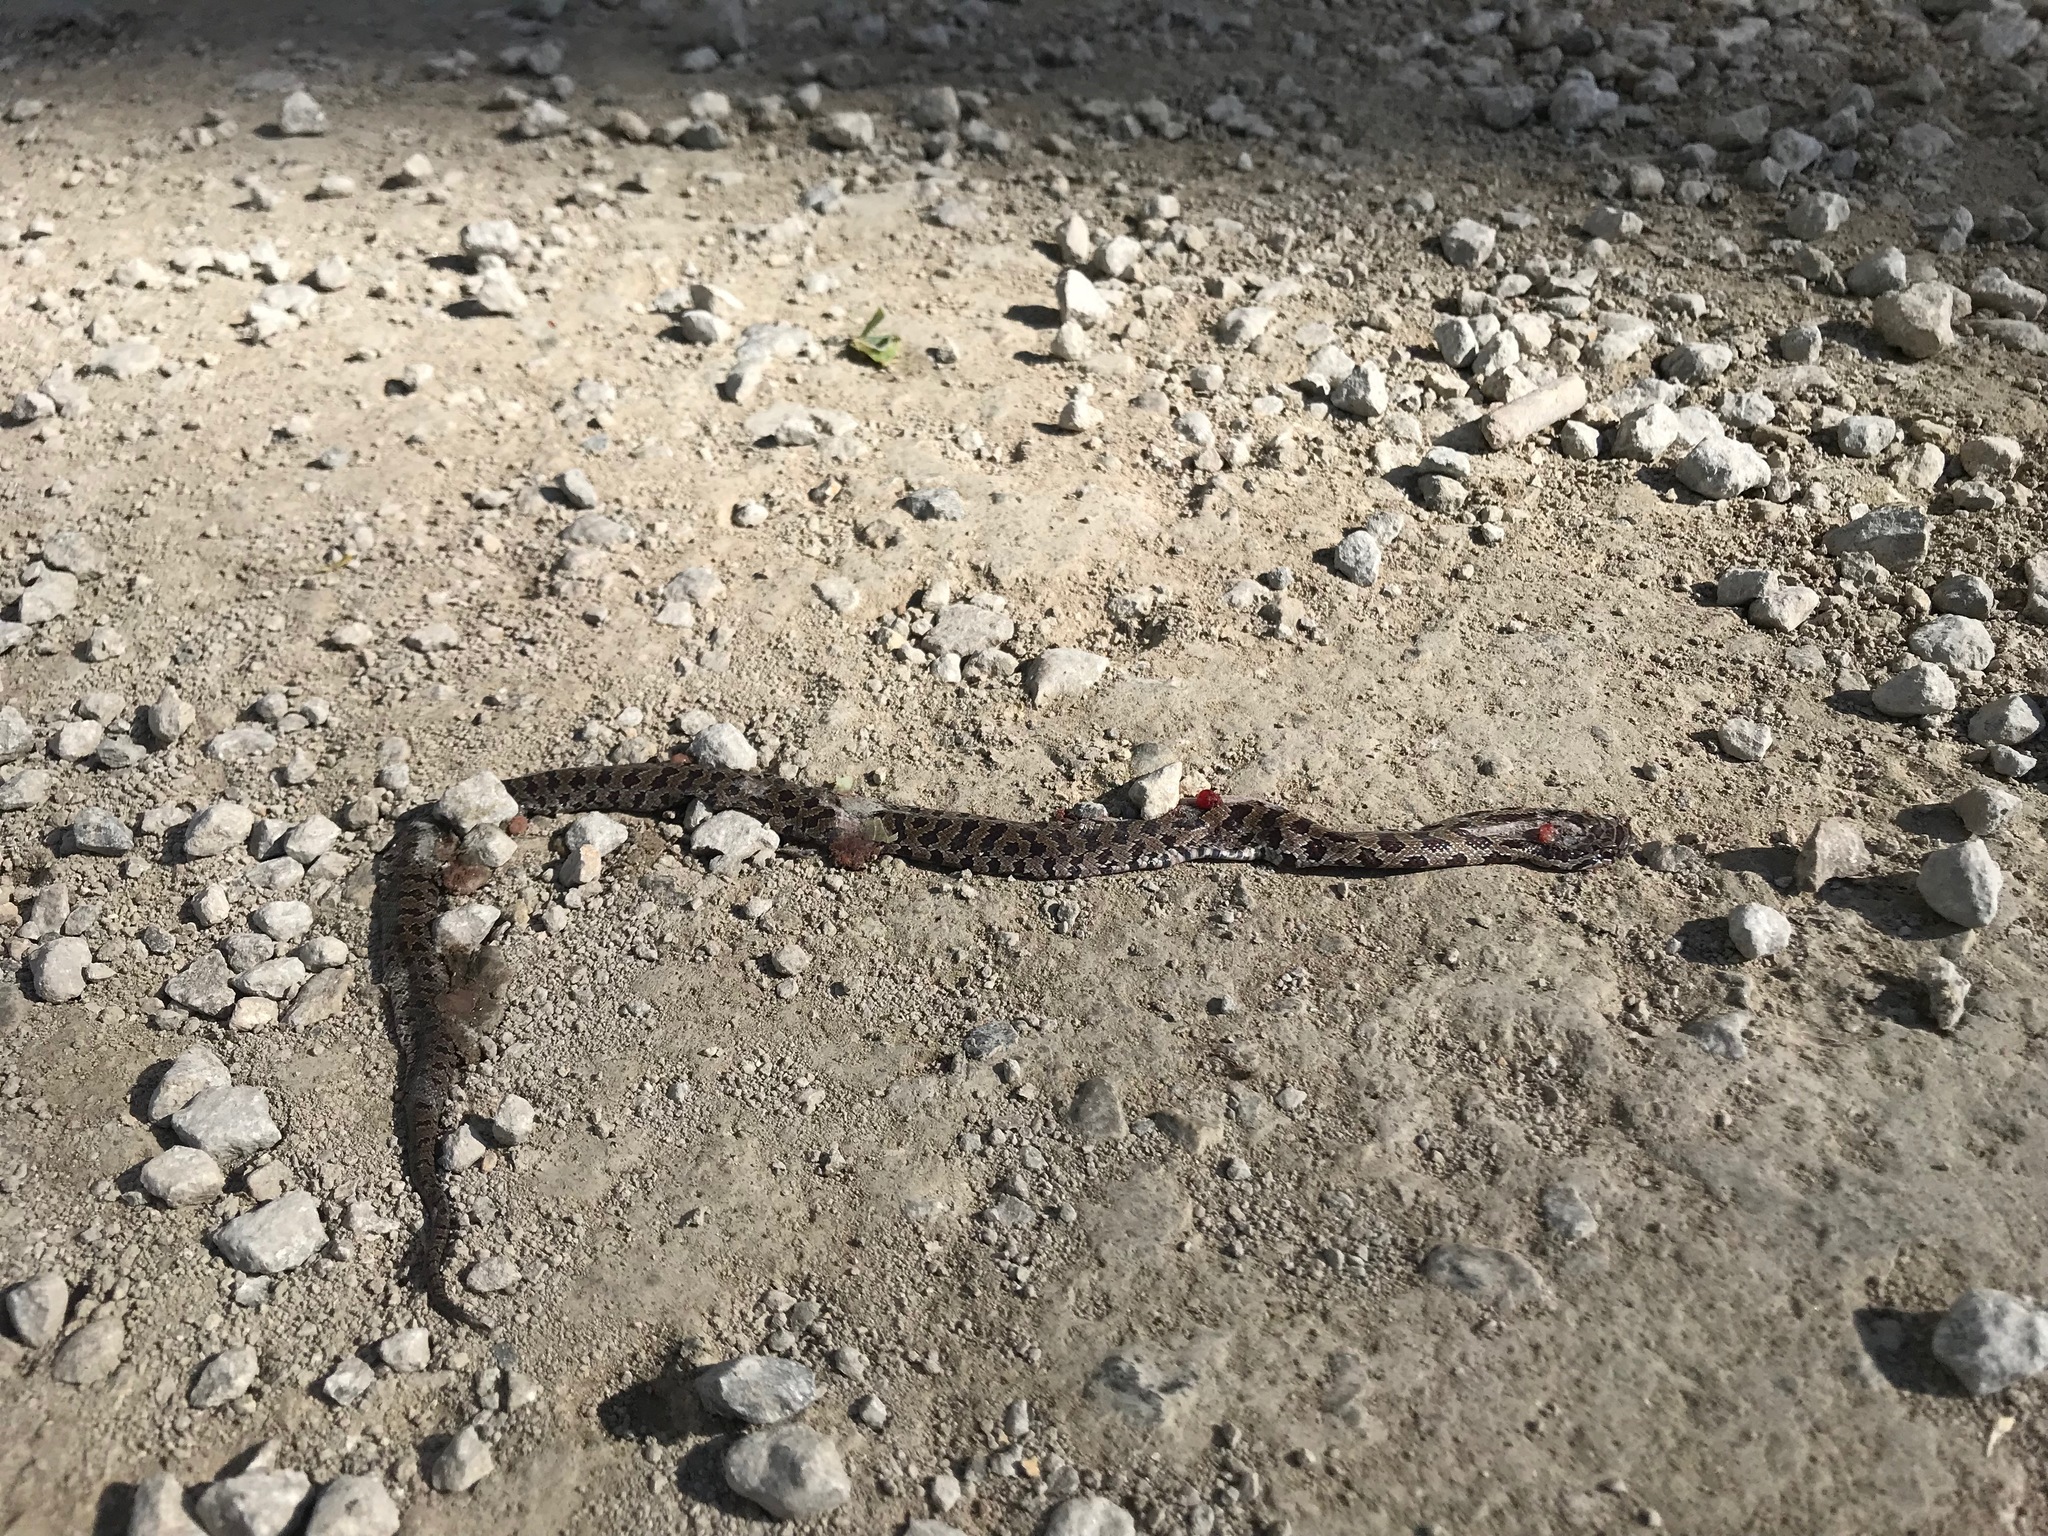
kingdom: Animalia
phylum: Chordata
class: Squamata
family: Colubridae
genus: Lampropeltis
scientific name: Lampropeltis calligaster
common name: Prairie kingsnake
